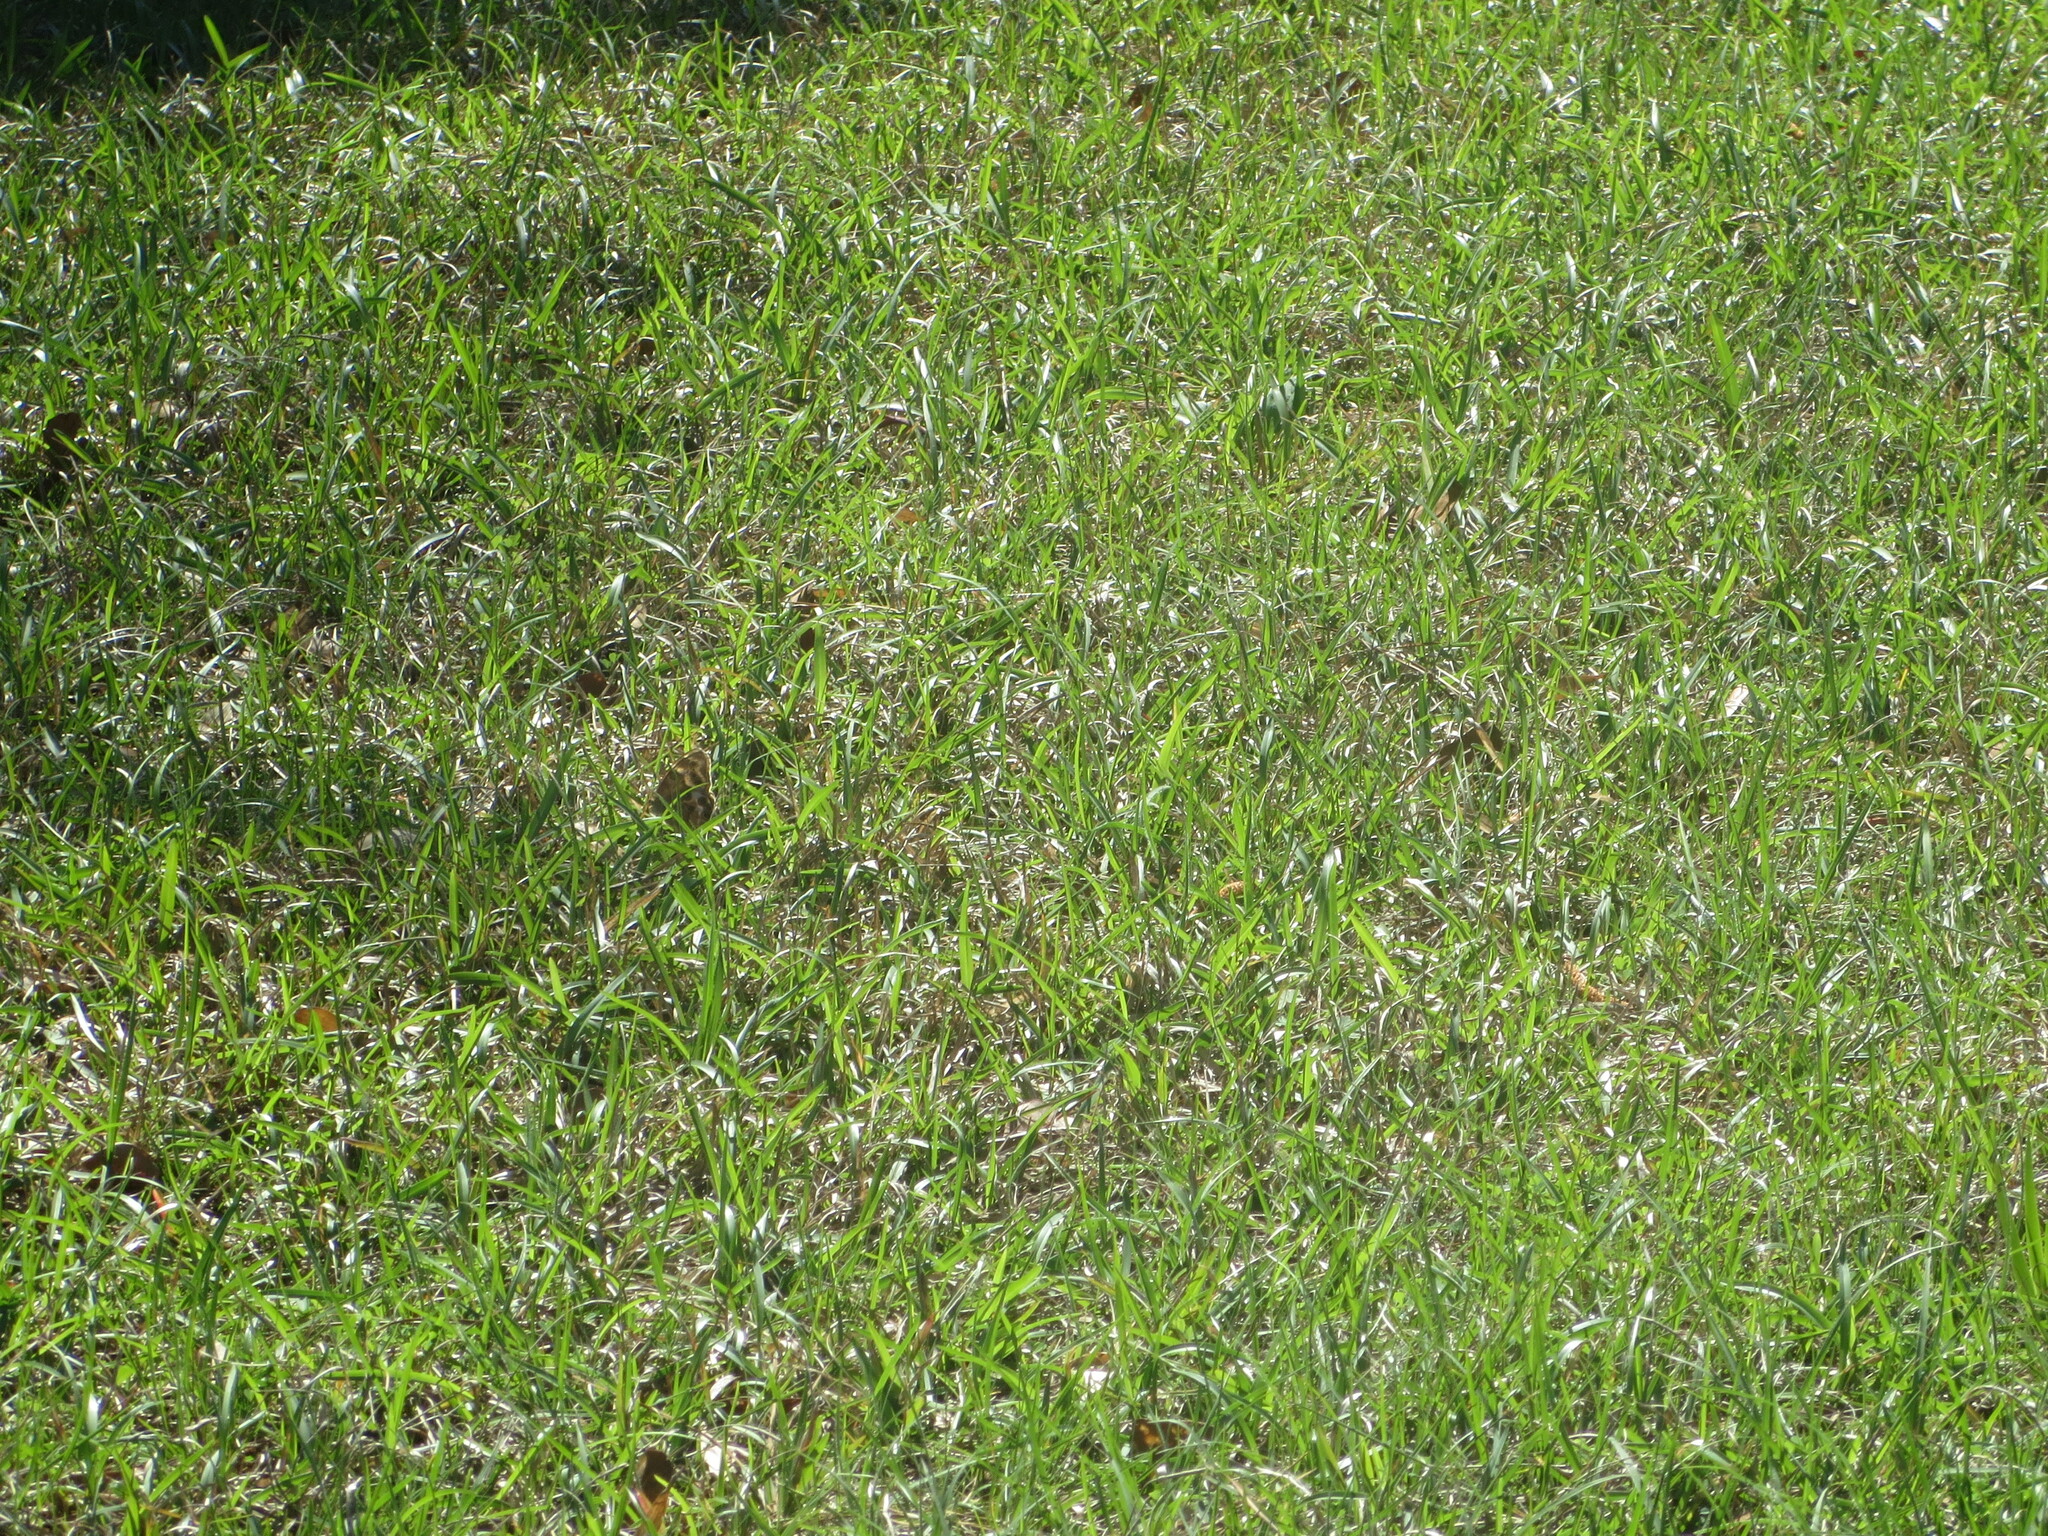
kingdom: Animalia
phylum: Arthropoda
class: Insecta
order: Lepidoptera
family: Nymphalidae
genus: Enodia
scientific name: Enodia portlandia
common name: Southern pearly-eye
